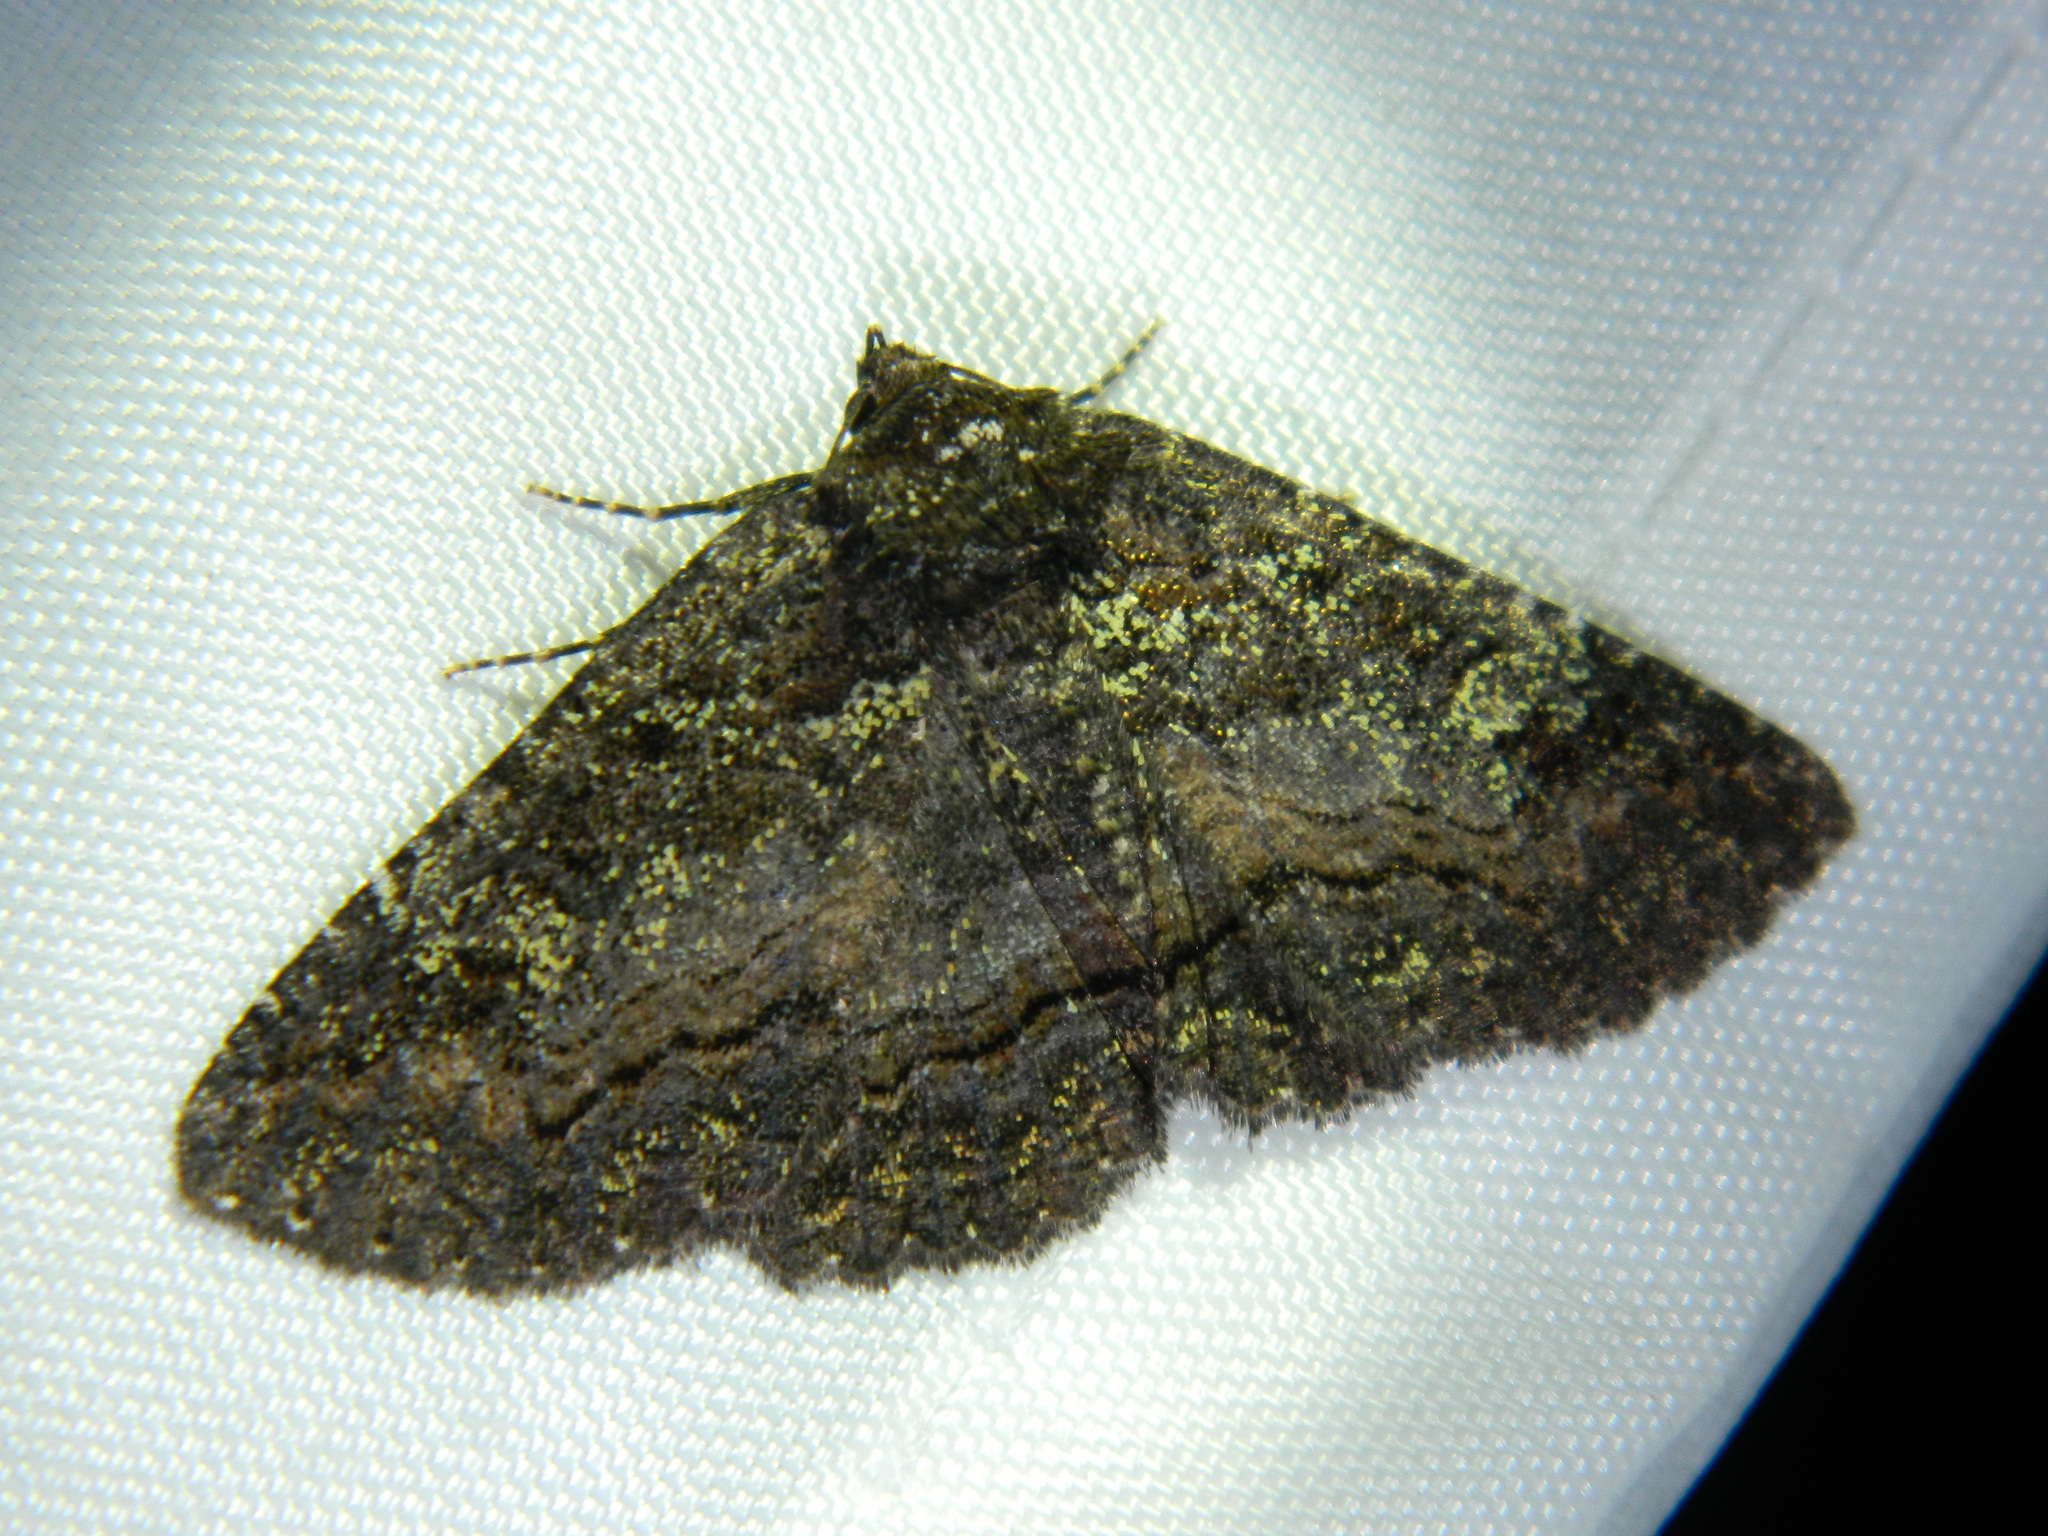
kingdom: Animalia
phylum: Arthropoda
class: Insecta
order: Lepidoptera
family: Erebidae
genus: Zale
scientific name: Zale aeruginosa
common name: Green-dusted zale moth
